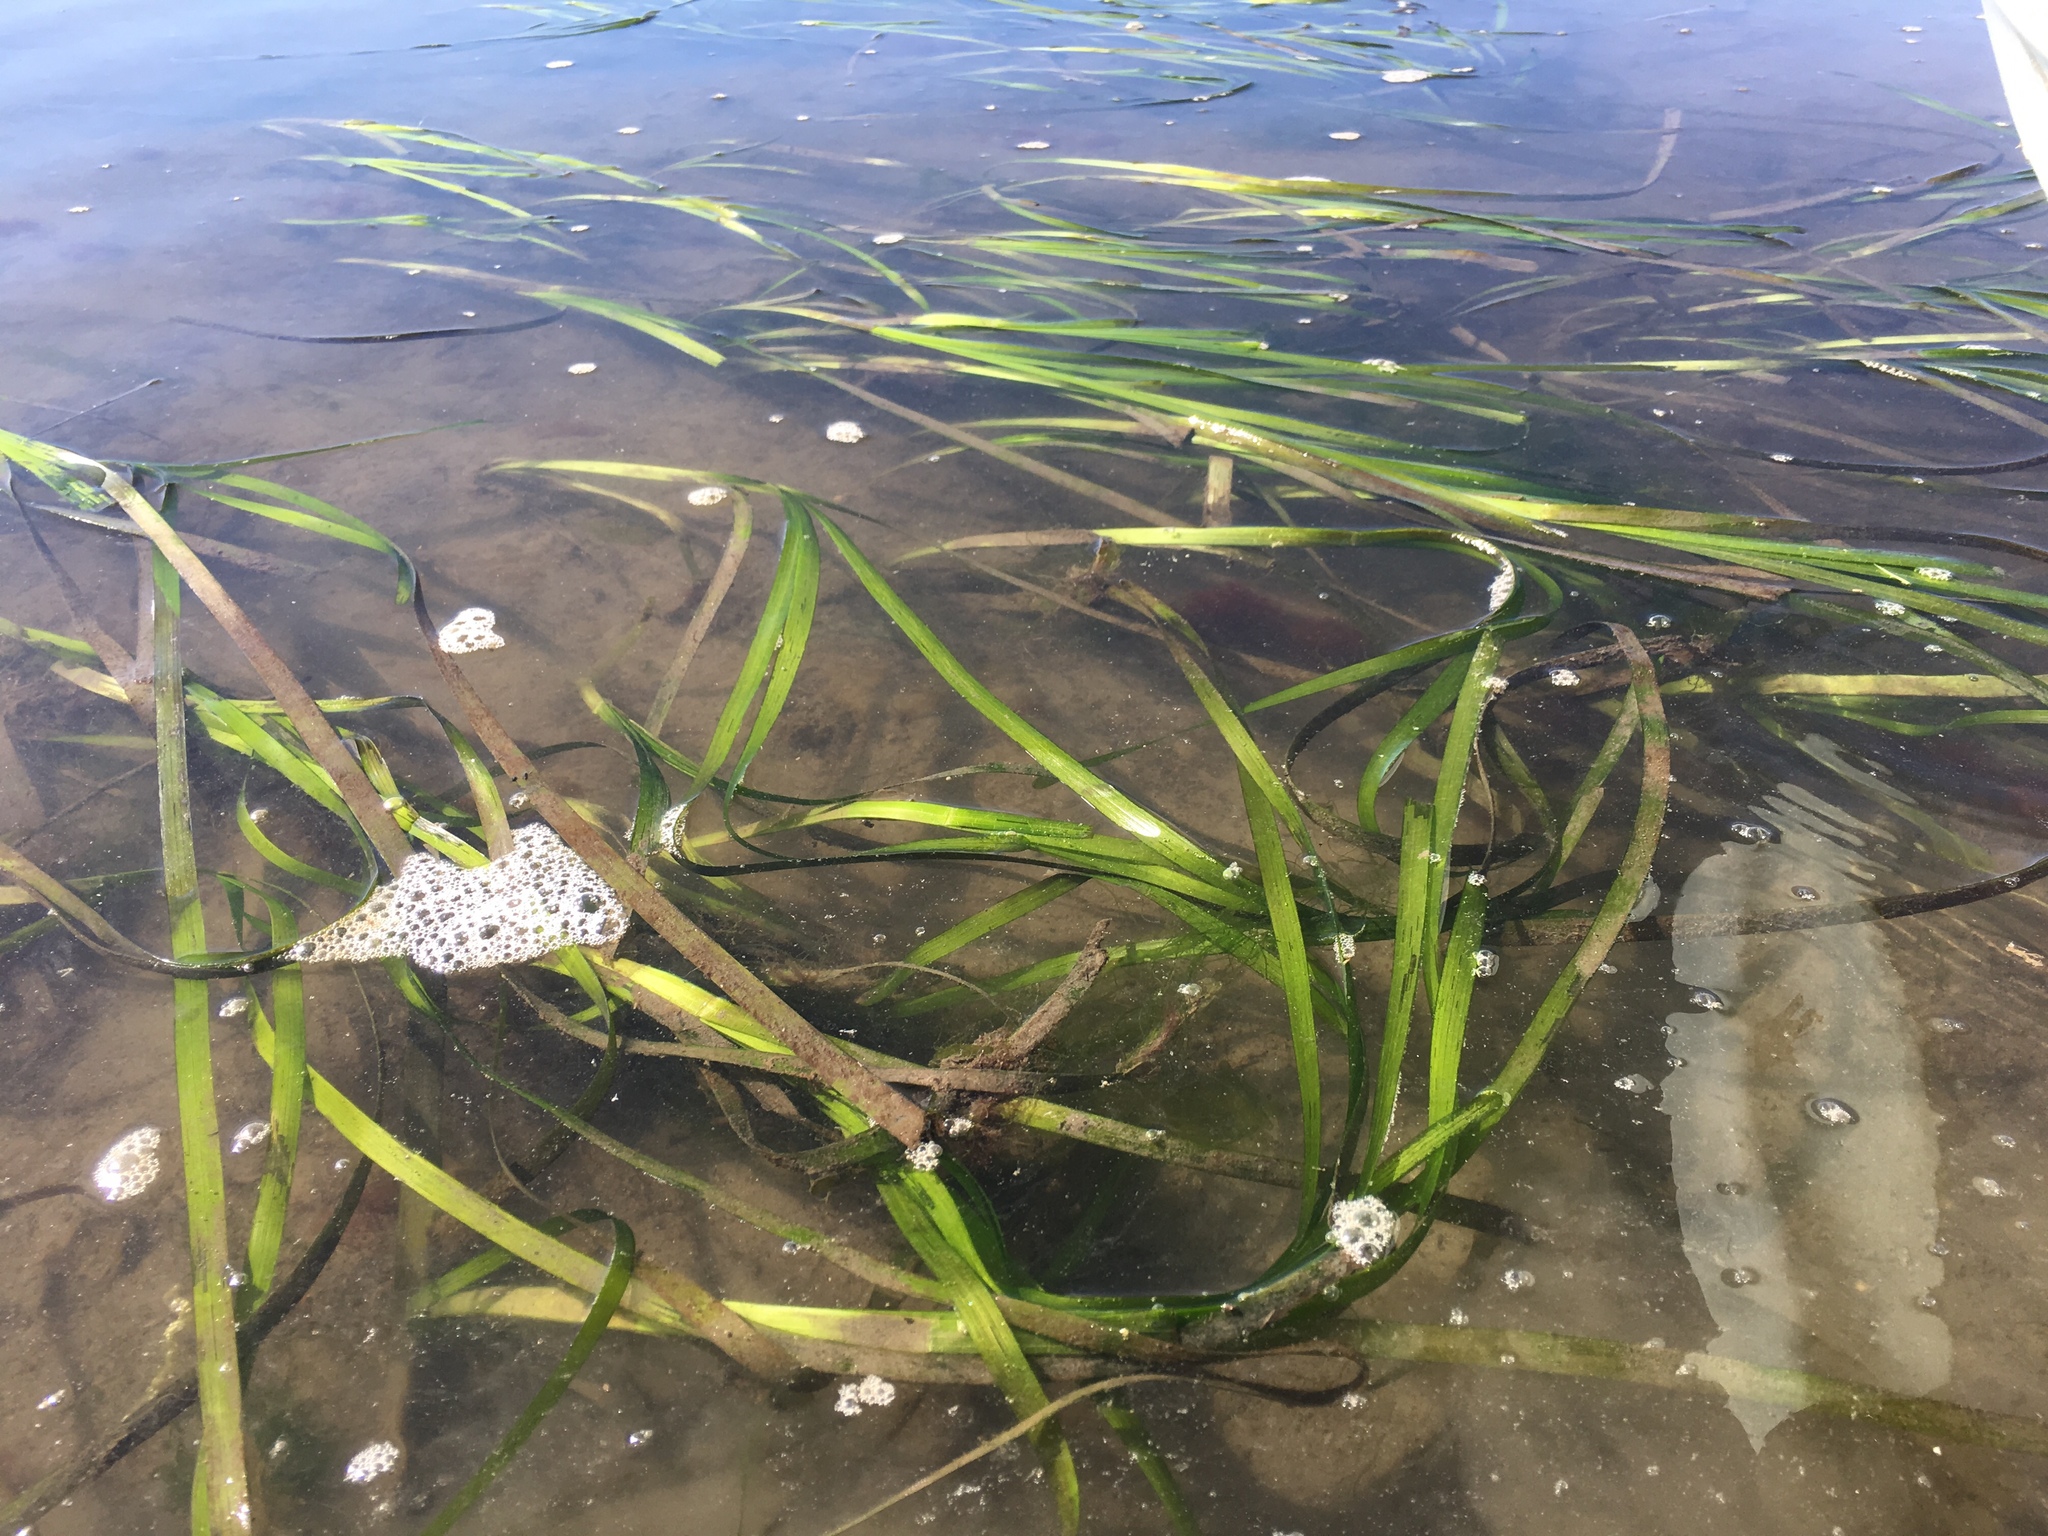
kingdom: Plantae
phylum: Tracheophyta
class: Liliopsida
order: Alismatales
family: Zosteraceae
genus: Zostera
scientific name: Zostera marina
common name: Eelgrass
